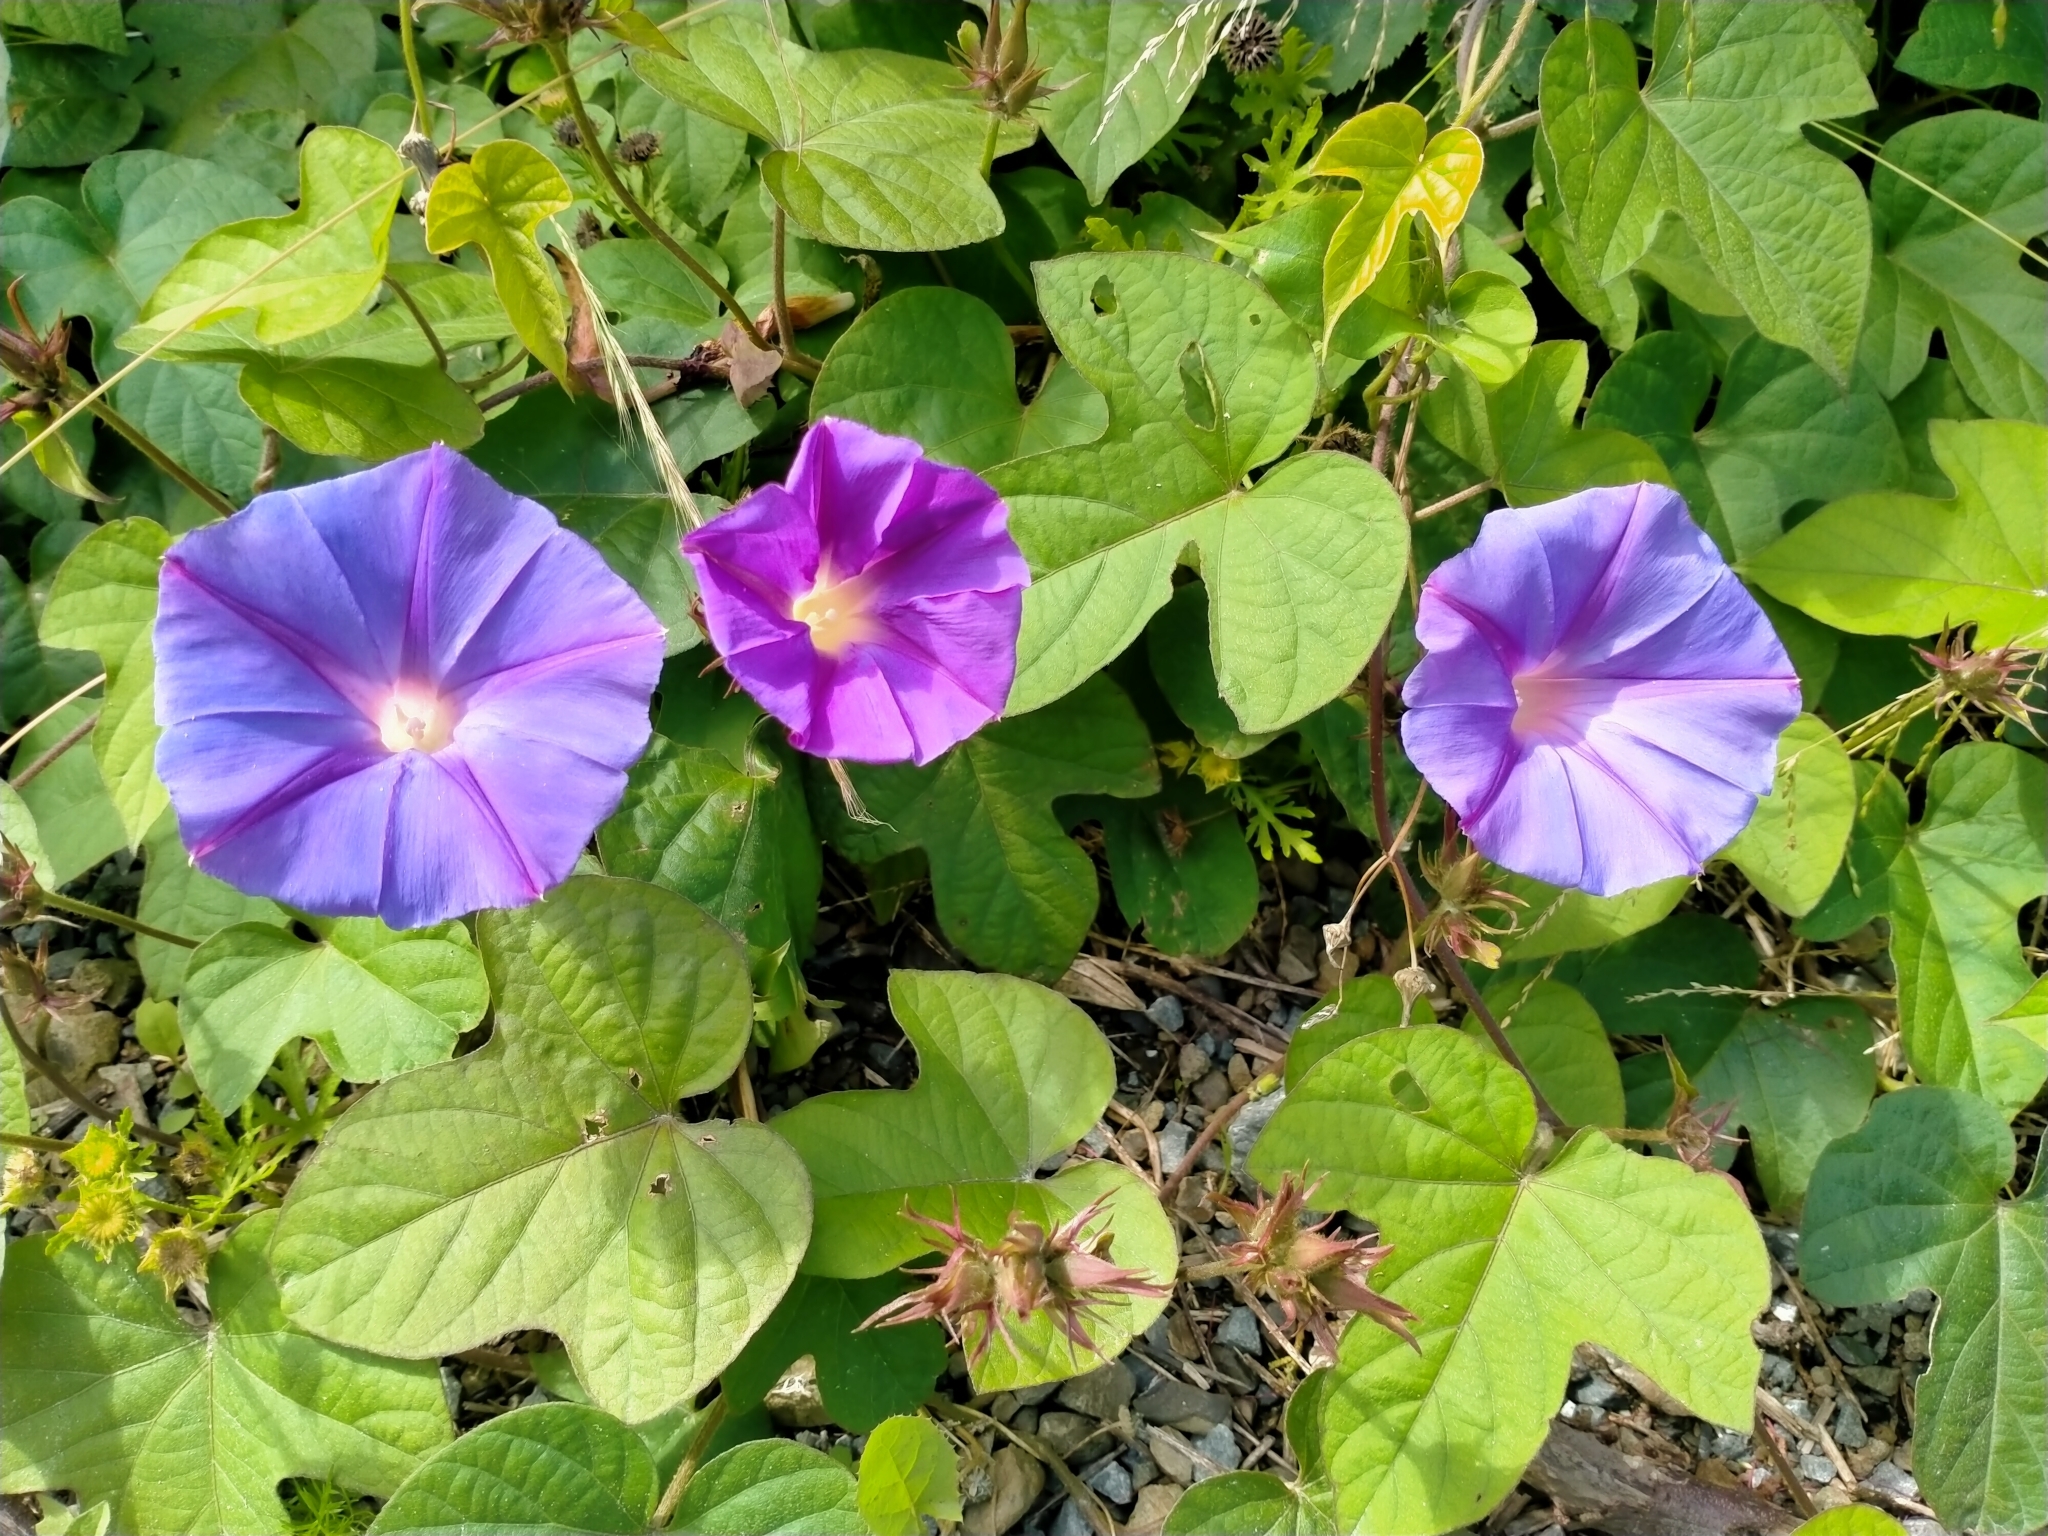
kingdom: Plantae
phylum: Tracheophyta
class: Magnoliopsida
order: Solanales
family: Convolvulaceae
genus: Ipomoea
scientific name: Ipomoea indica
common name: Blue dawnflower
